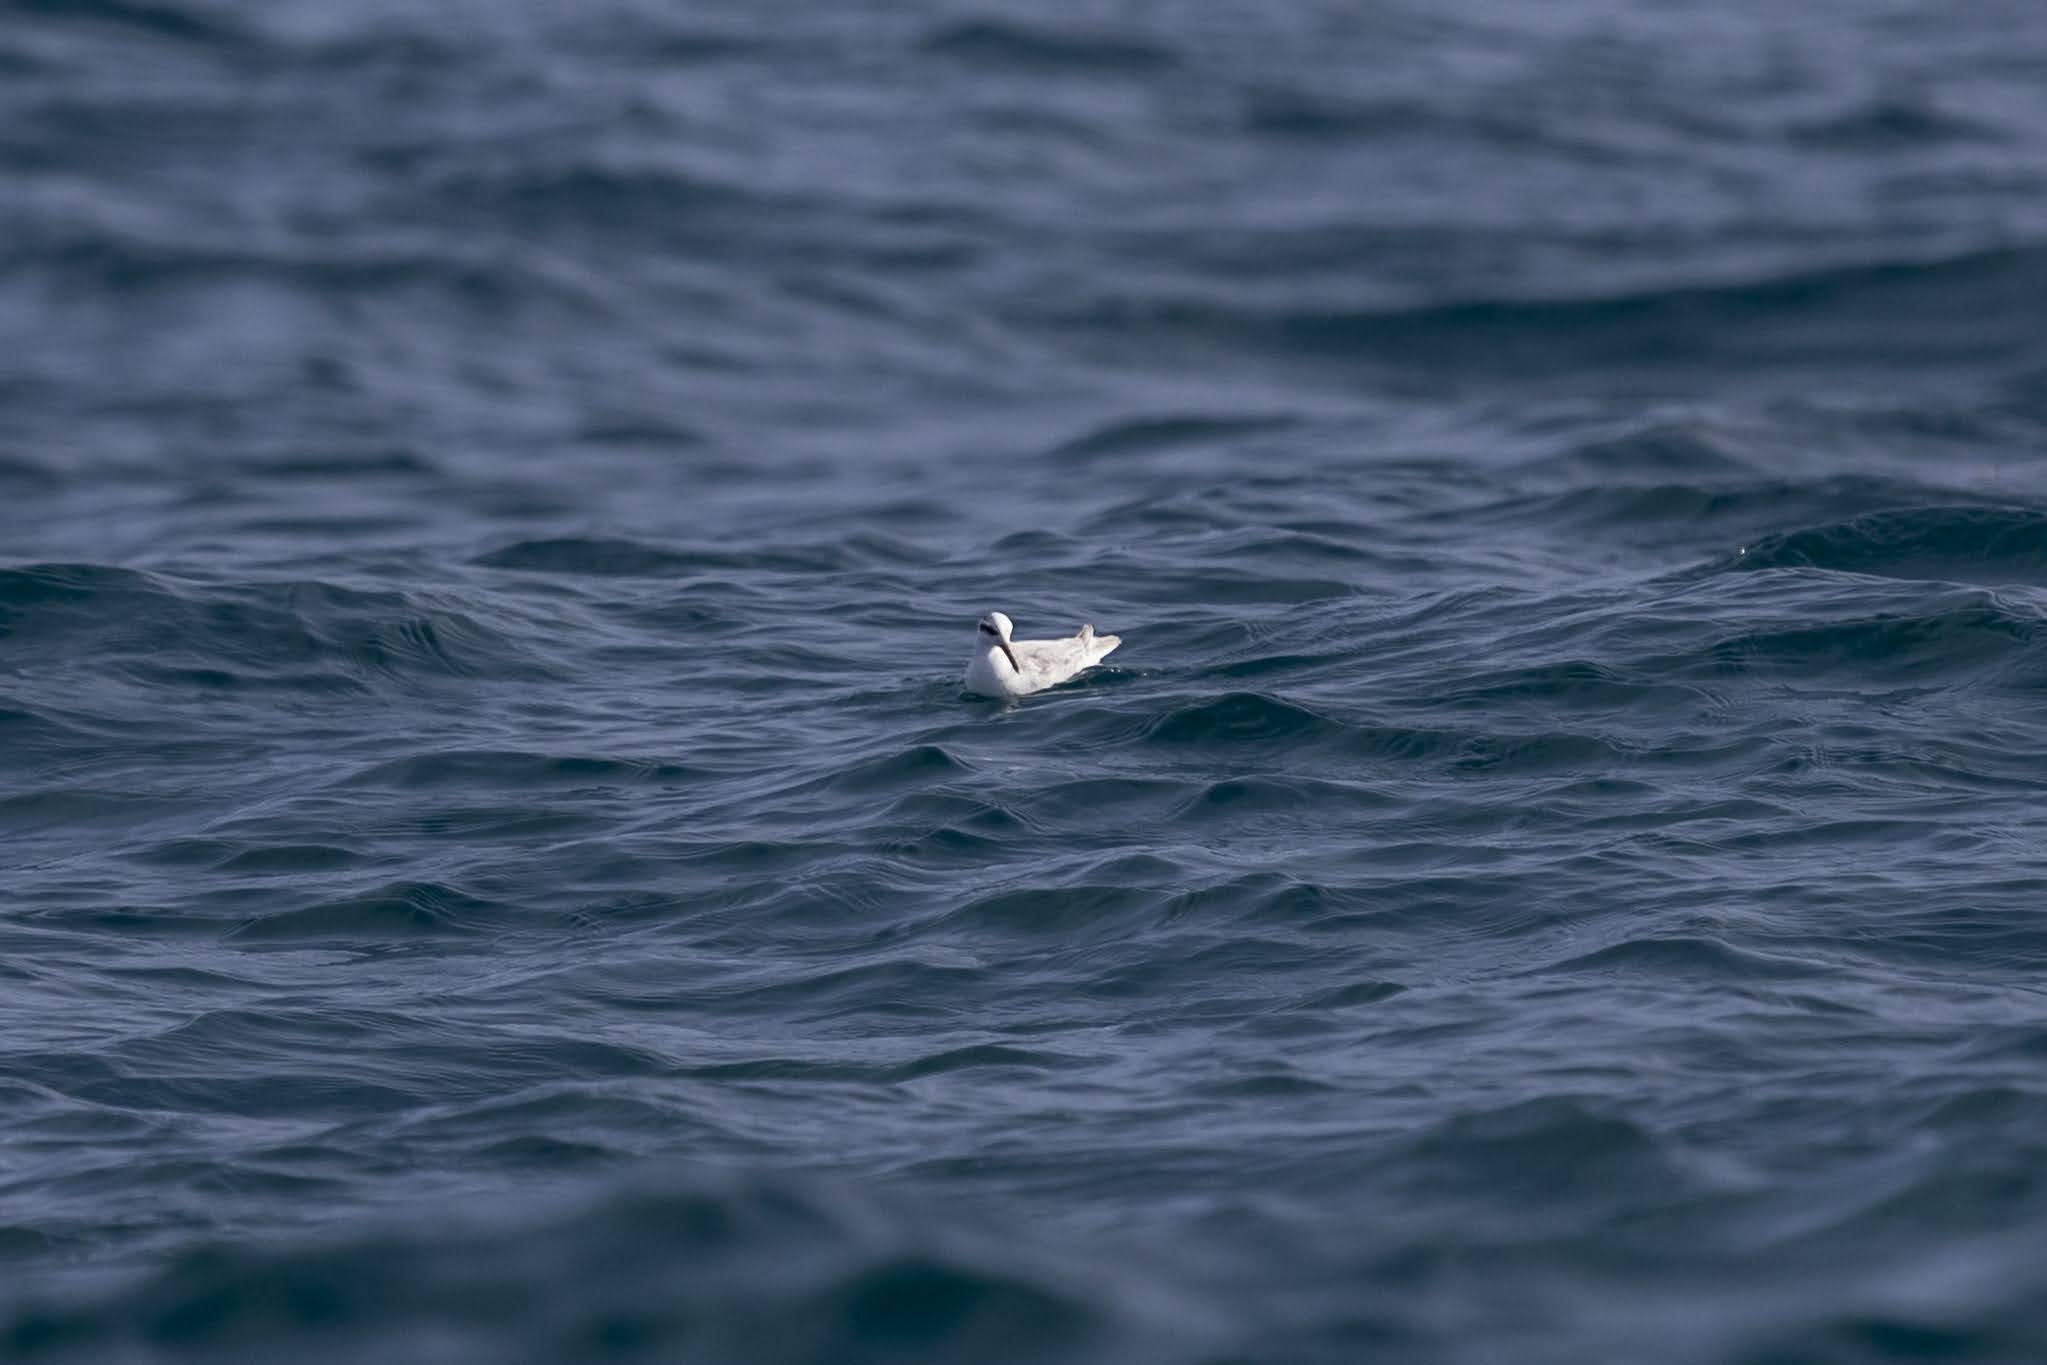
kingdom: Animalia
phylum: Chordata
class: Aves
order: Charadriiformes
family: Scolopacidae
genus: Phalaropus
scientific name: Phalaropus fulicarius
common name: Red phalarope
